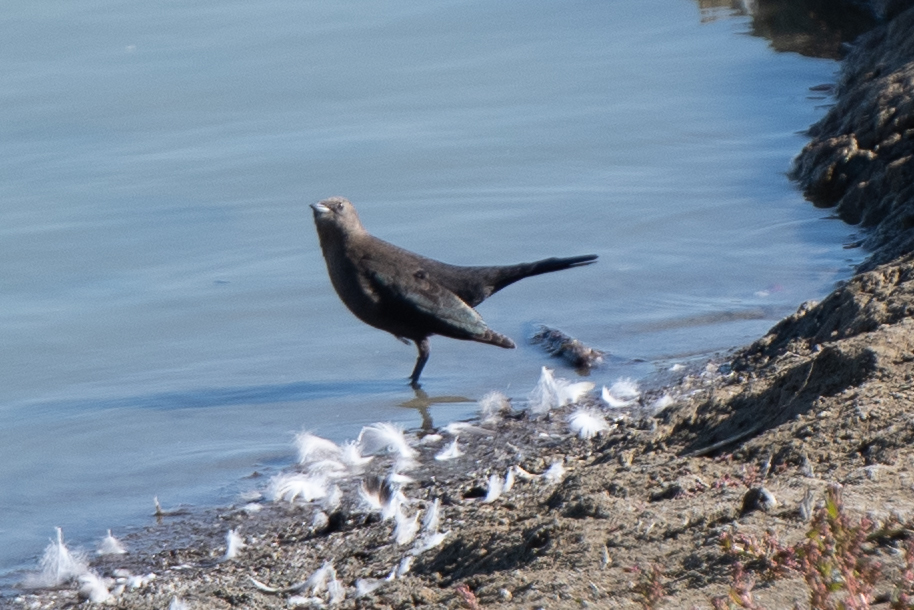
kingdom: Animalia
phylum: Chordata
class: Aves
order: Passeriformes
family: Icteridae
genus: Euphagus
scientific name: Euphagus cyanocephalus
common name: Brewer's blackbird
